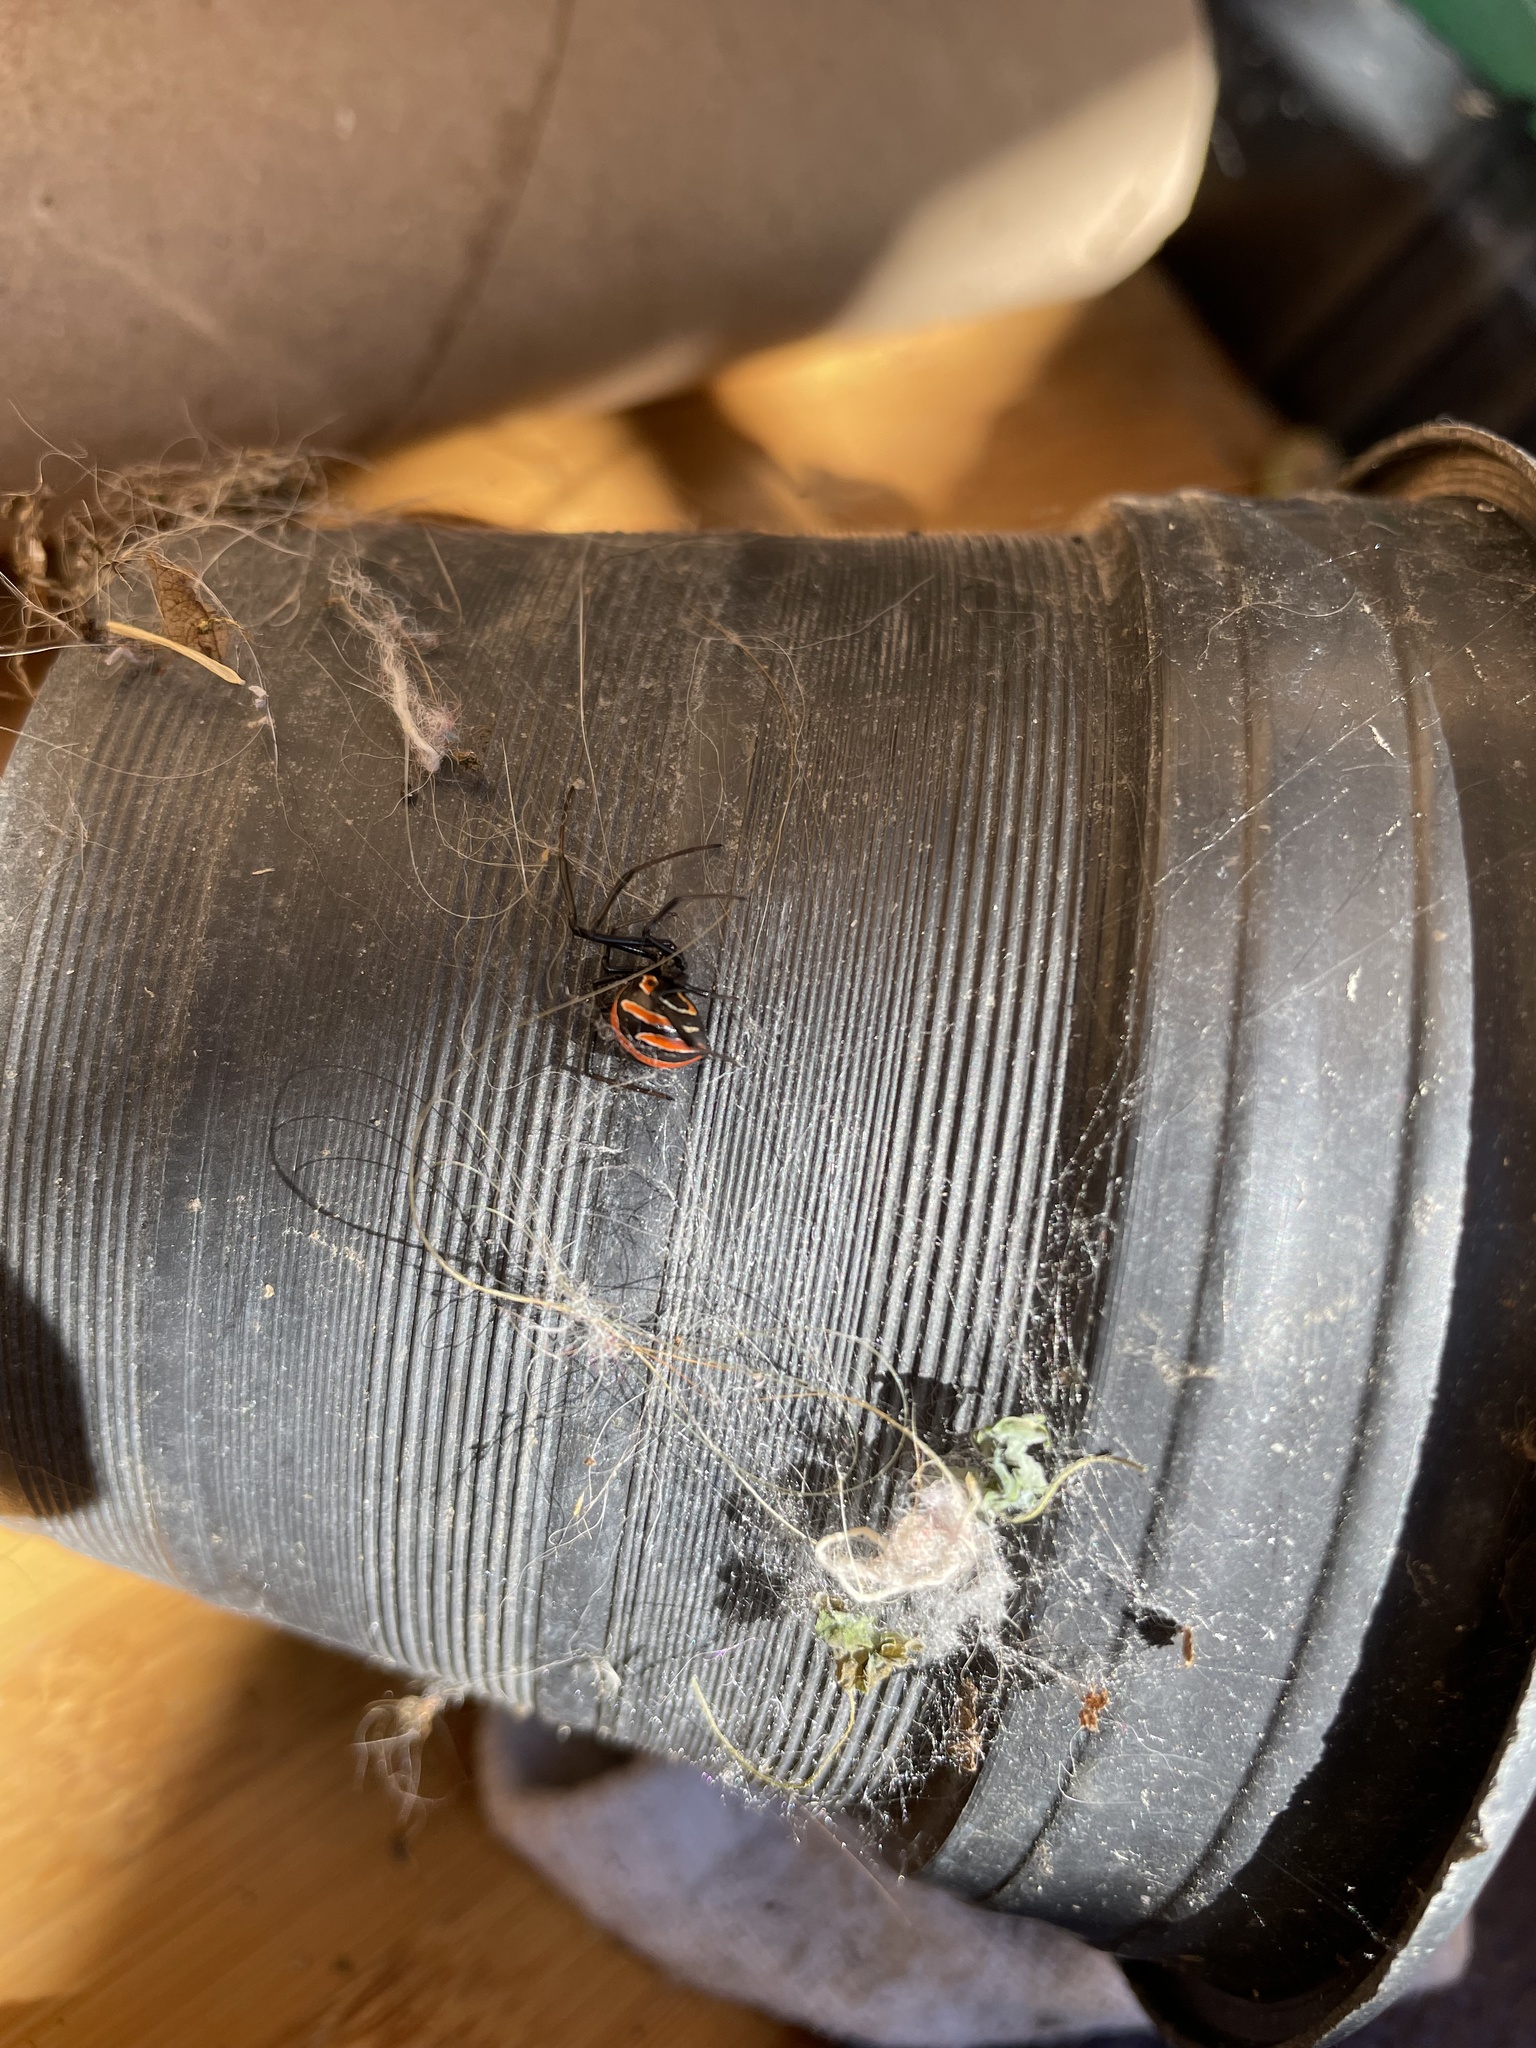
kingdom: Animalia
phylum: Arthropoda
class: Arachnida
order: Araneae
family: Theridiidae
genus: Latrodectus
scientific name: Latrodectus
